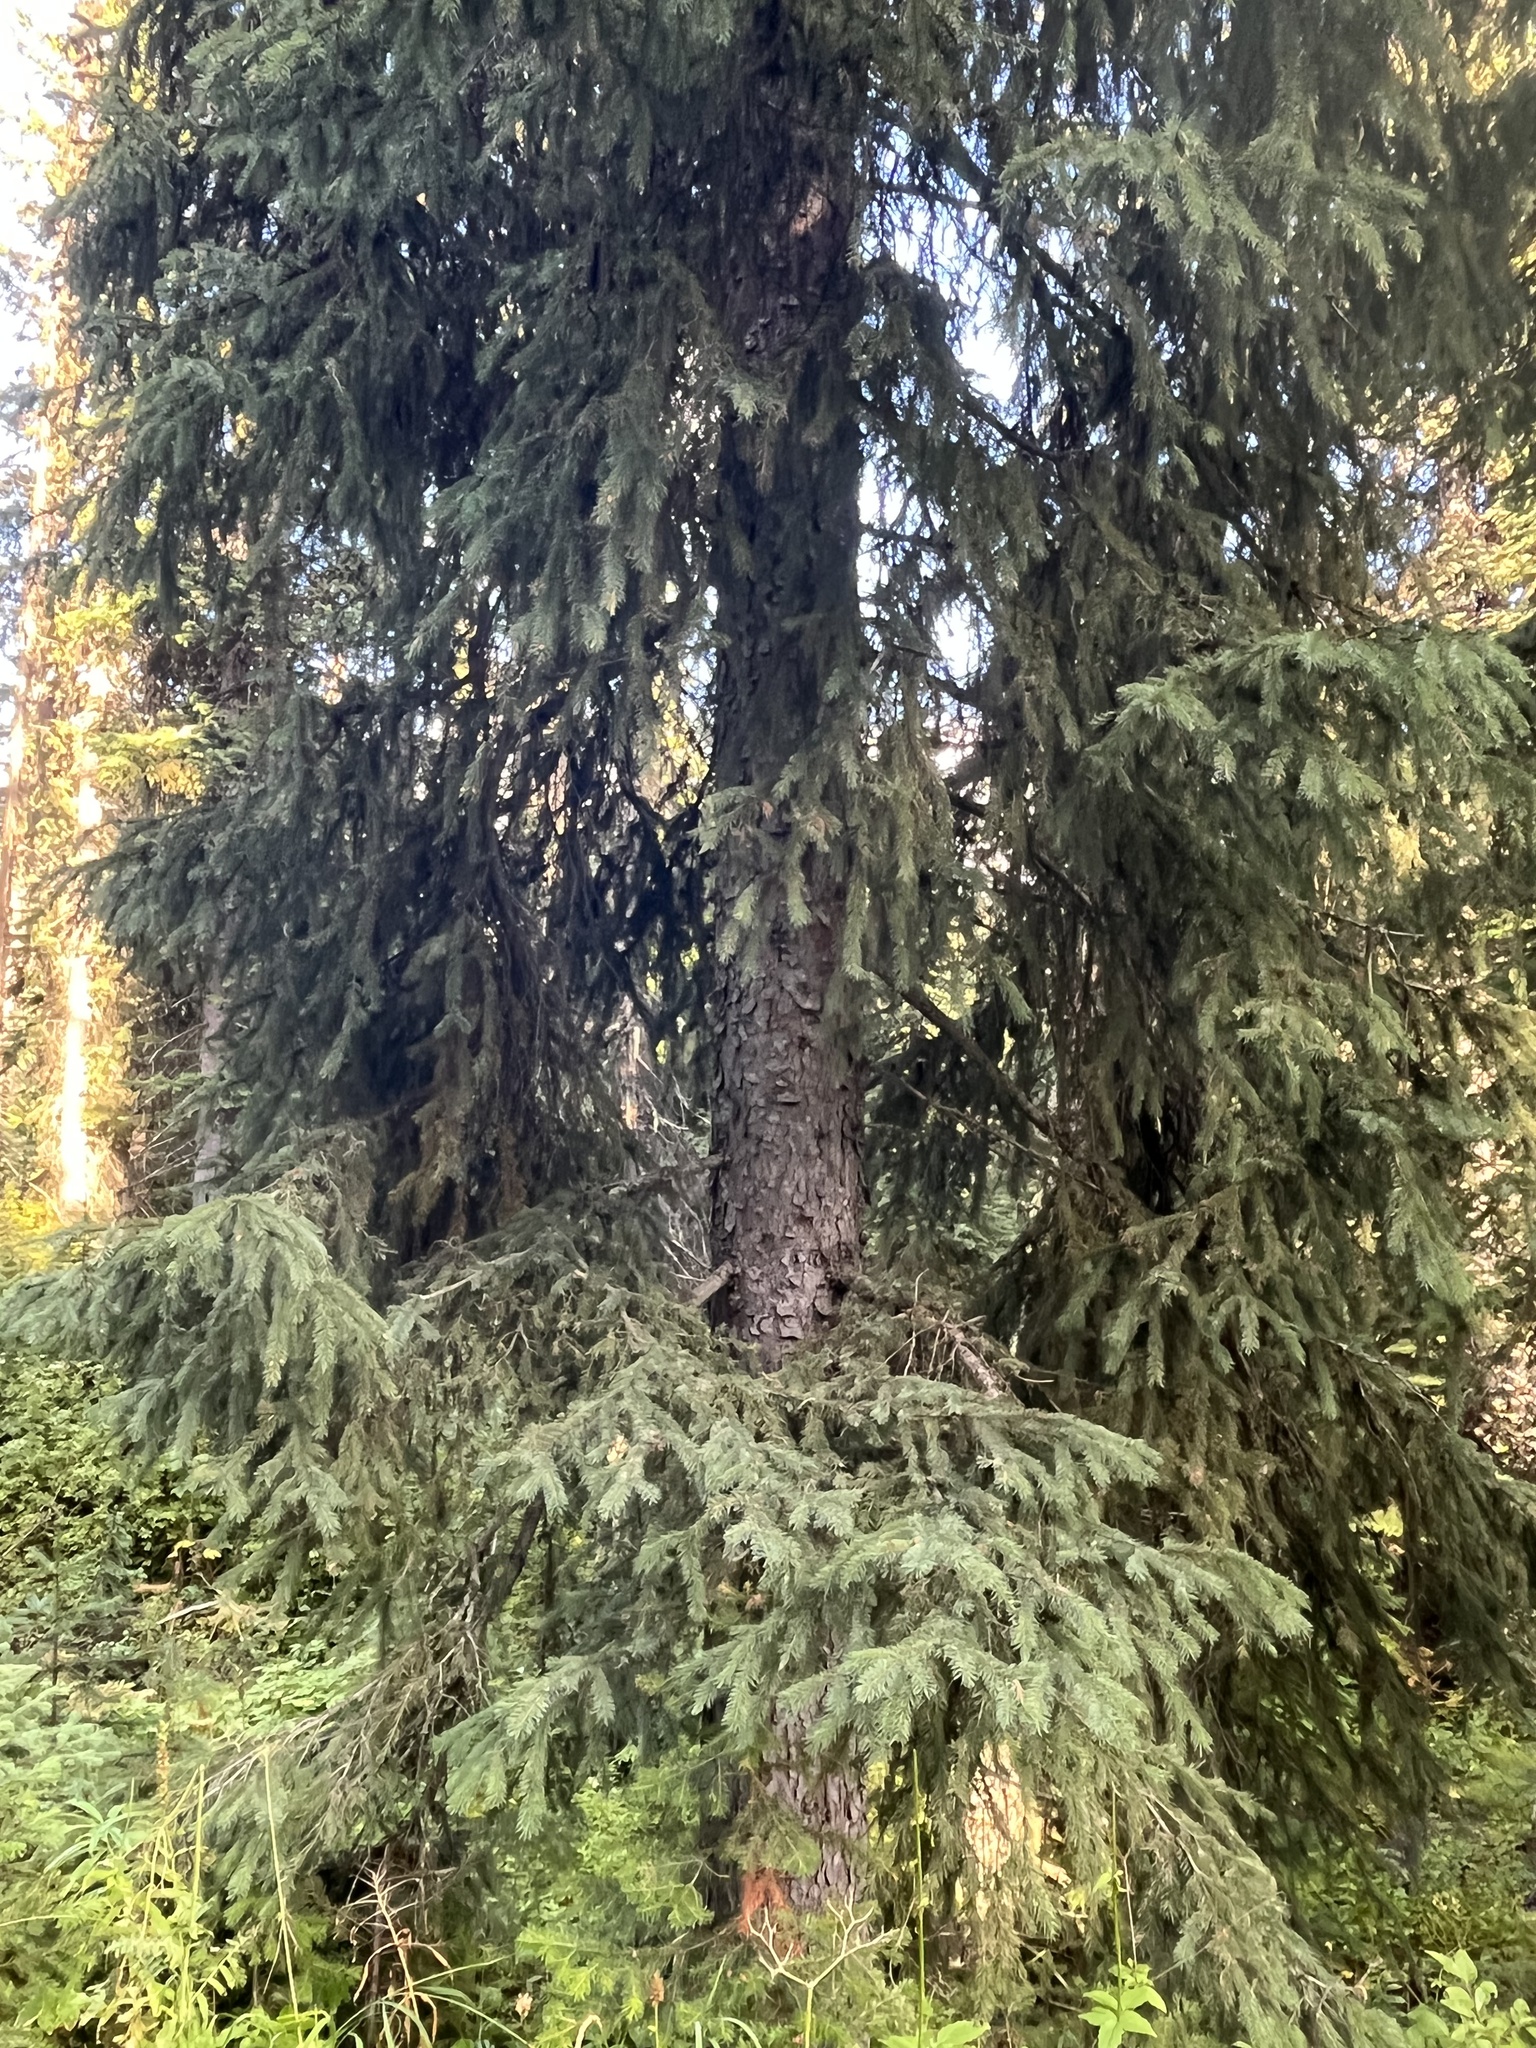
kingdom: Plantae
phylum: Tracheophyta
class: Pinopsida
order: Pinales
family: Pinaceae
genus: Picea
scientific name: Picea engelmannii
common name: Engelmann spruce
